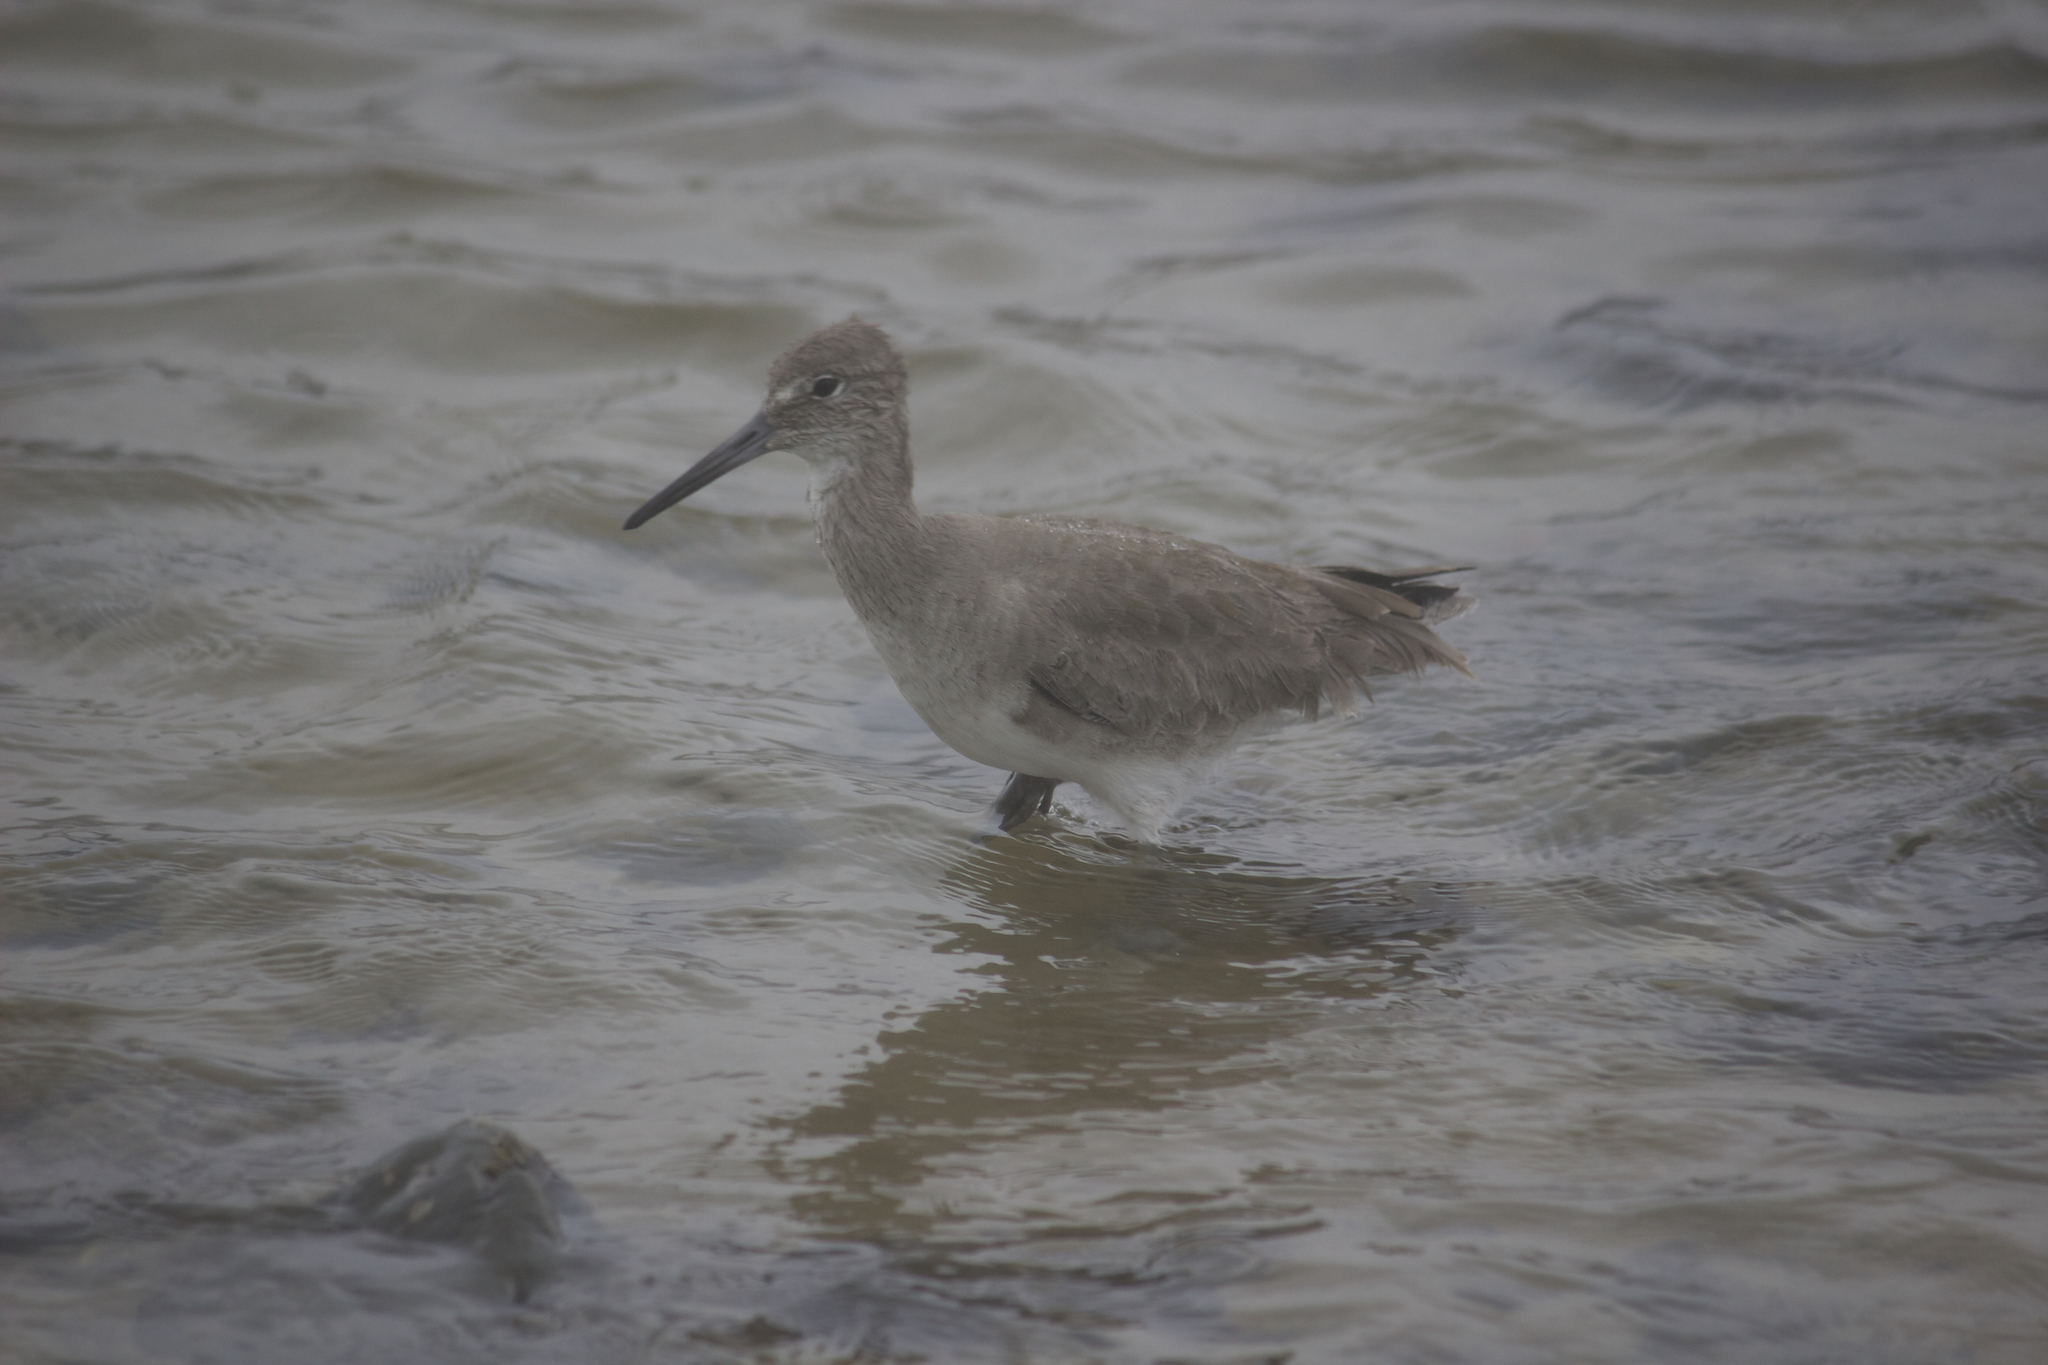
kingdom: Animalia
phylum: Chordata
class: Aves
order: Charadriiformes
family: Scolopacidae
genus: Tringa
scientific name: Tringa semipalmata
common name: Willet
